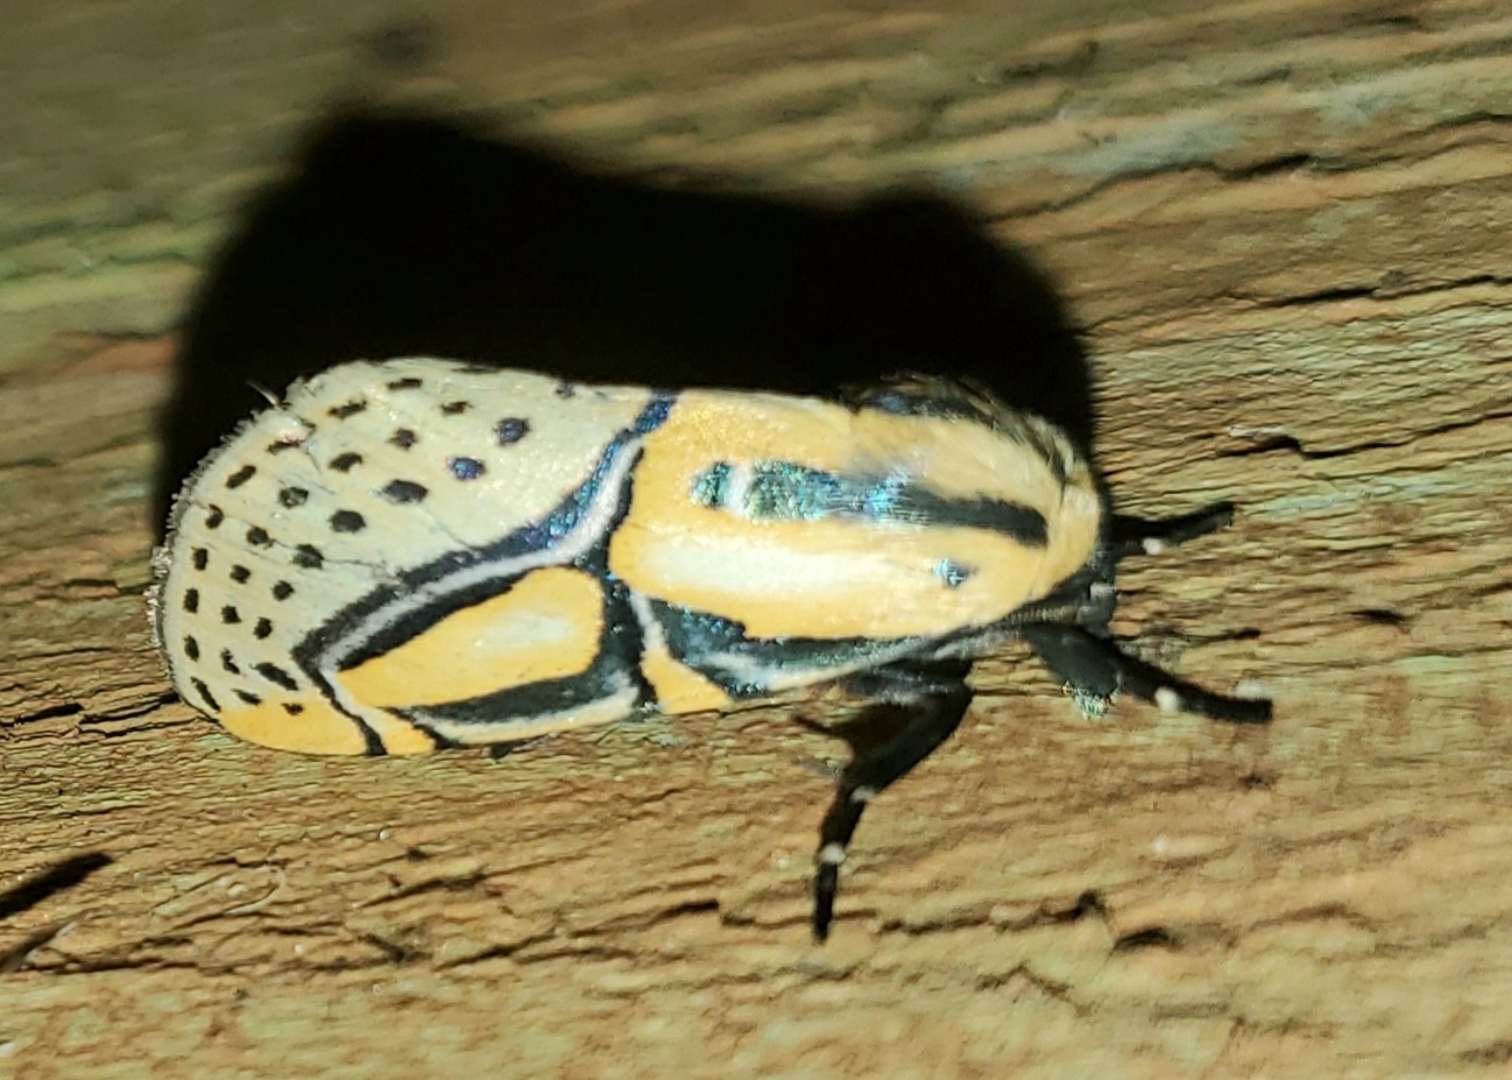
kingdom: Animalia
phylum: Arthropoda
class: Insecta
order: Lepidoptera
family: Erebidae
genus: Diphthera
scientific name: Diphthera festiva
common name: Hieroglyphic moth
